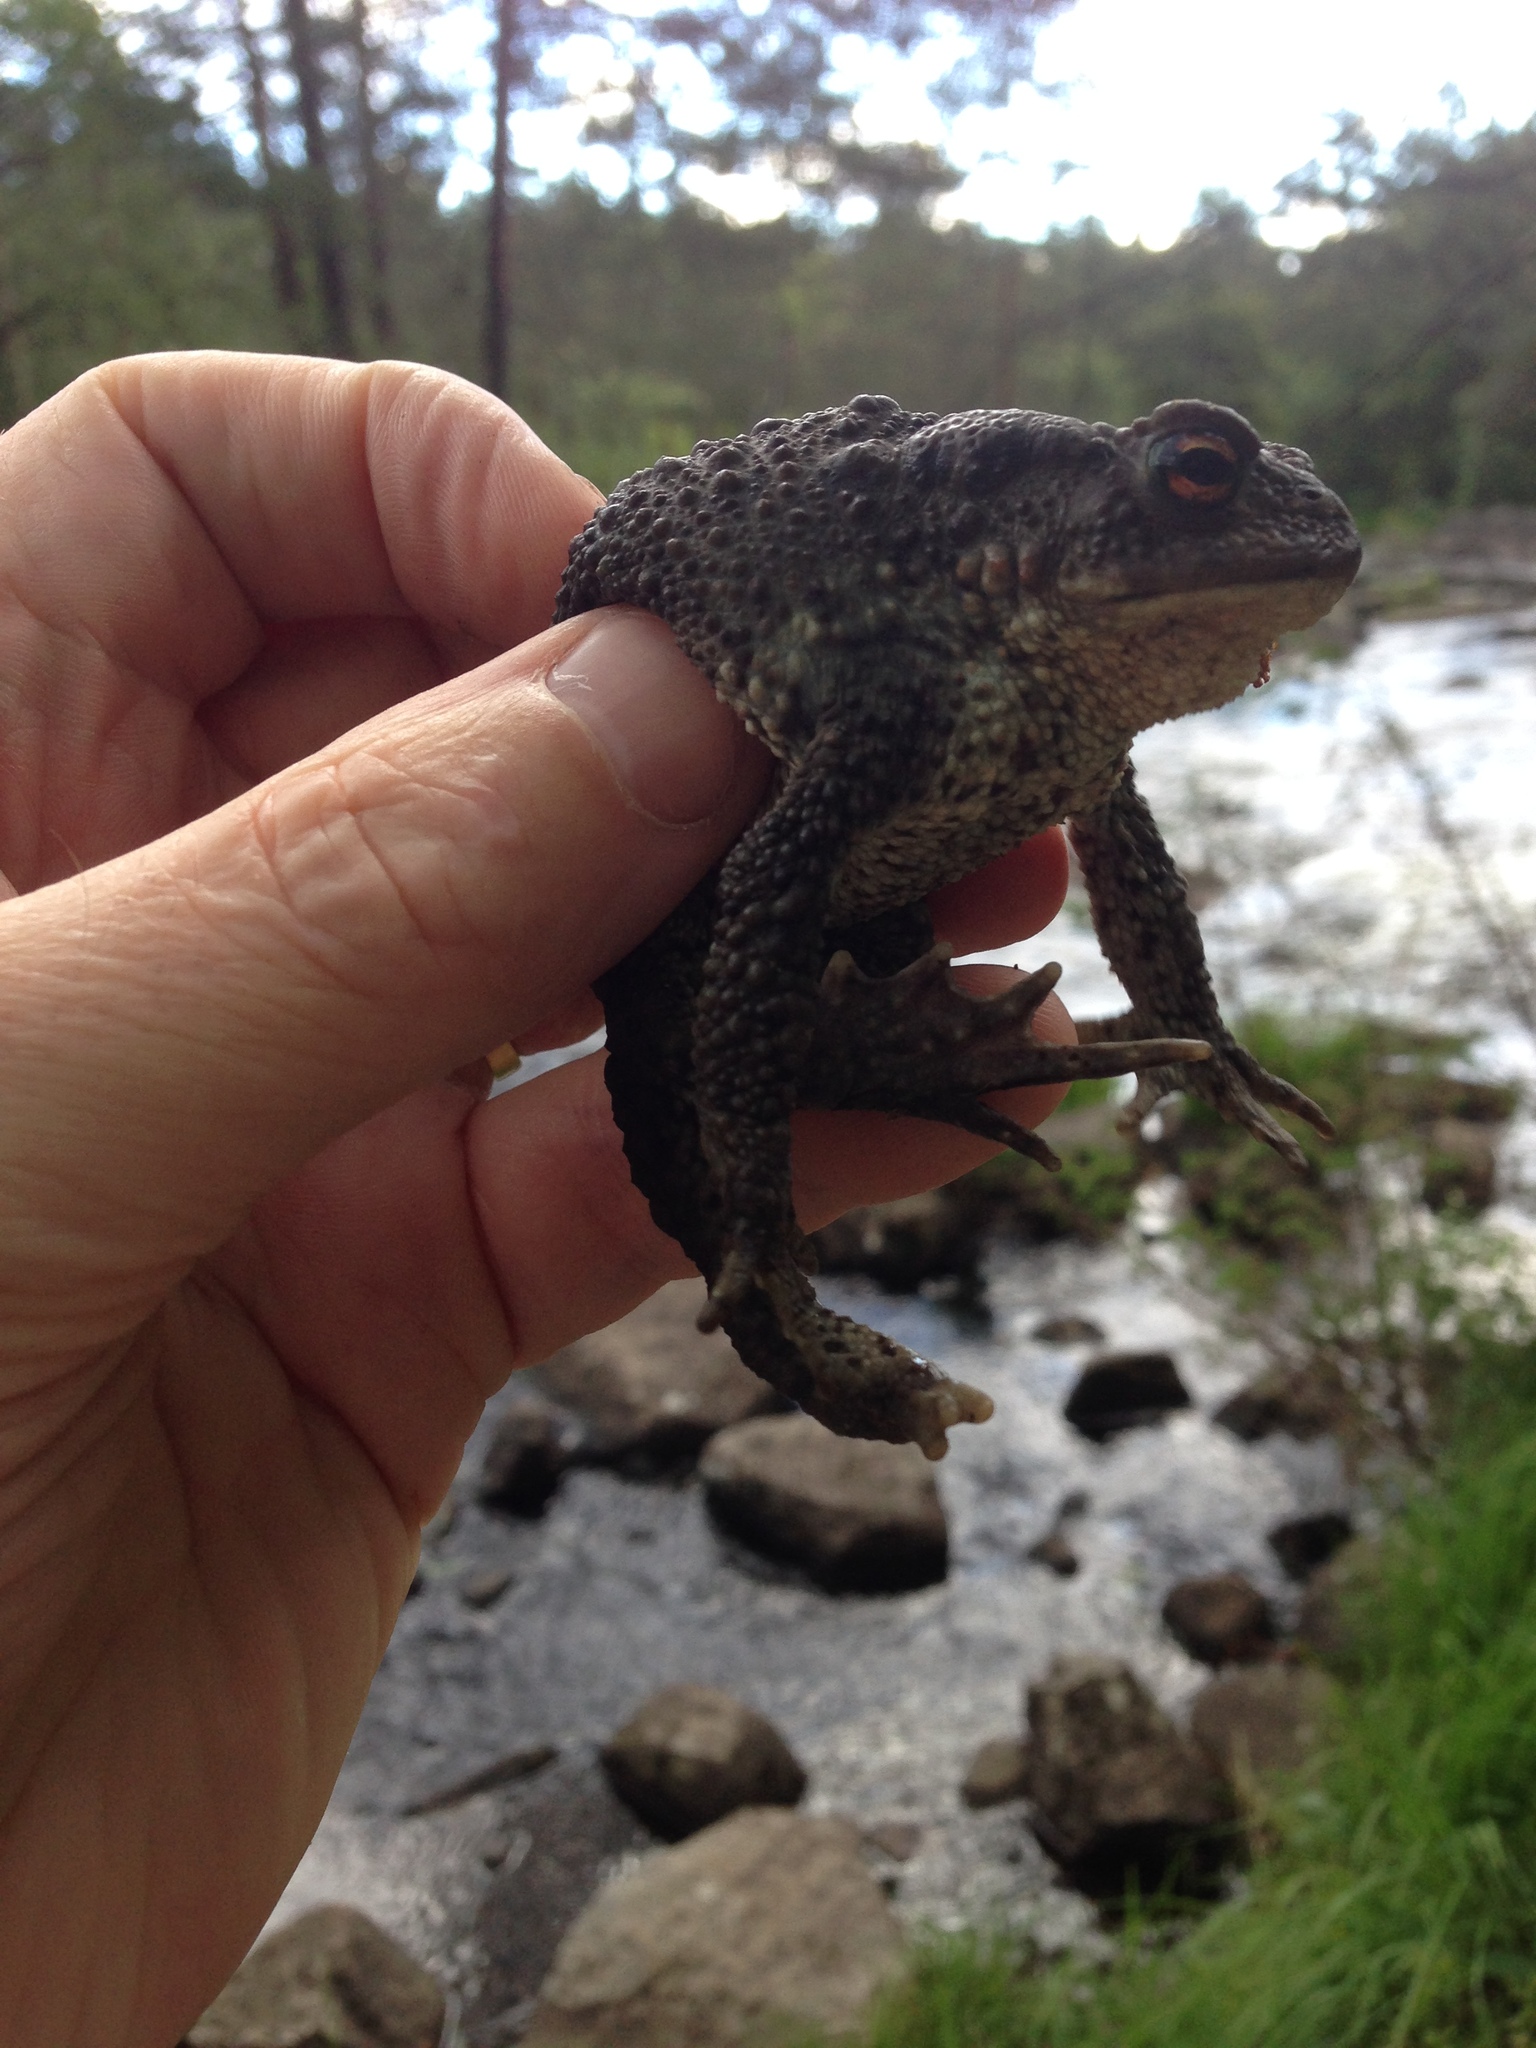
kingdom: Animalia
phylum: Chordata
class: Amphibia
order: Anura
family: Bufonidae
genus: Bufo
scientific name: Bufo bufo
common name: Common toad
